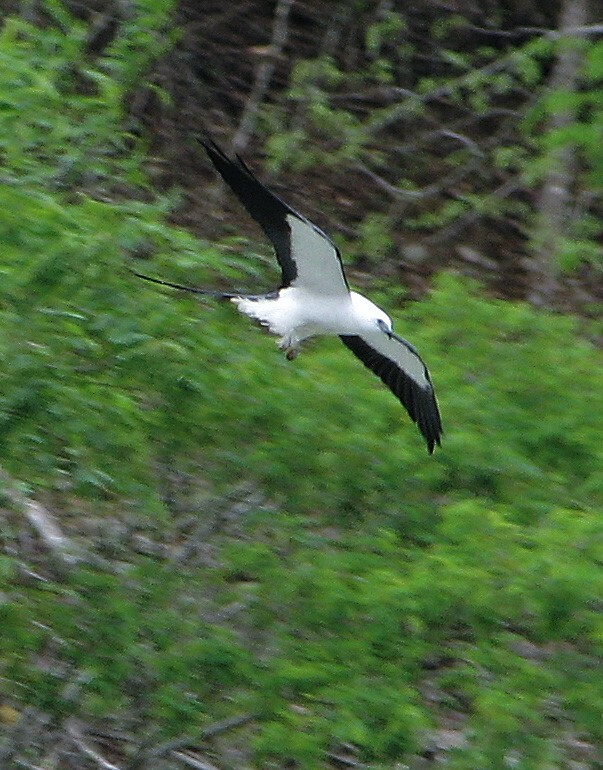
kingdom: Animalia
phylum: Chordata
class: Aves
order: Accipitriformes
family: Accipitridae
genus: Elanoides
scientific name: Elanoides forficatus
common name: Swallow-tailed kite
